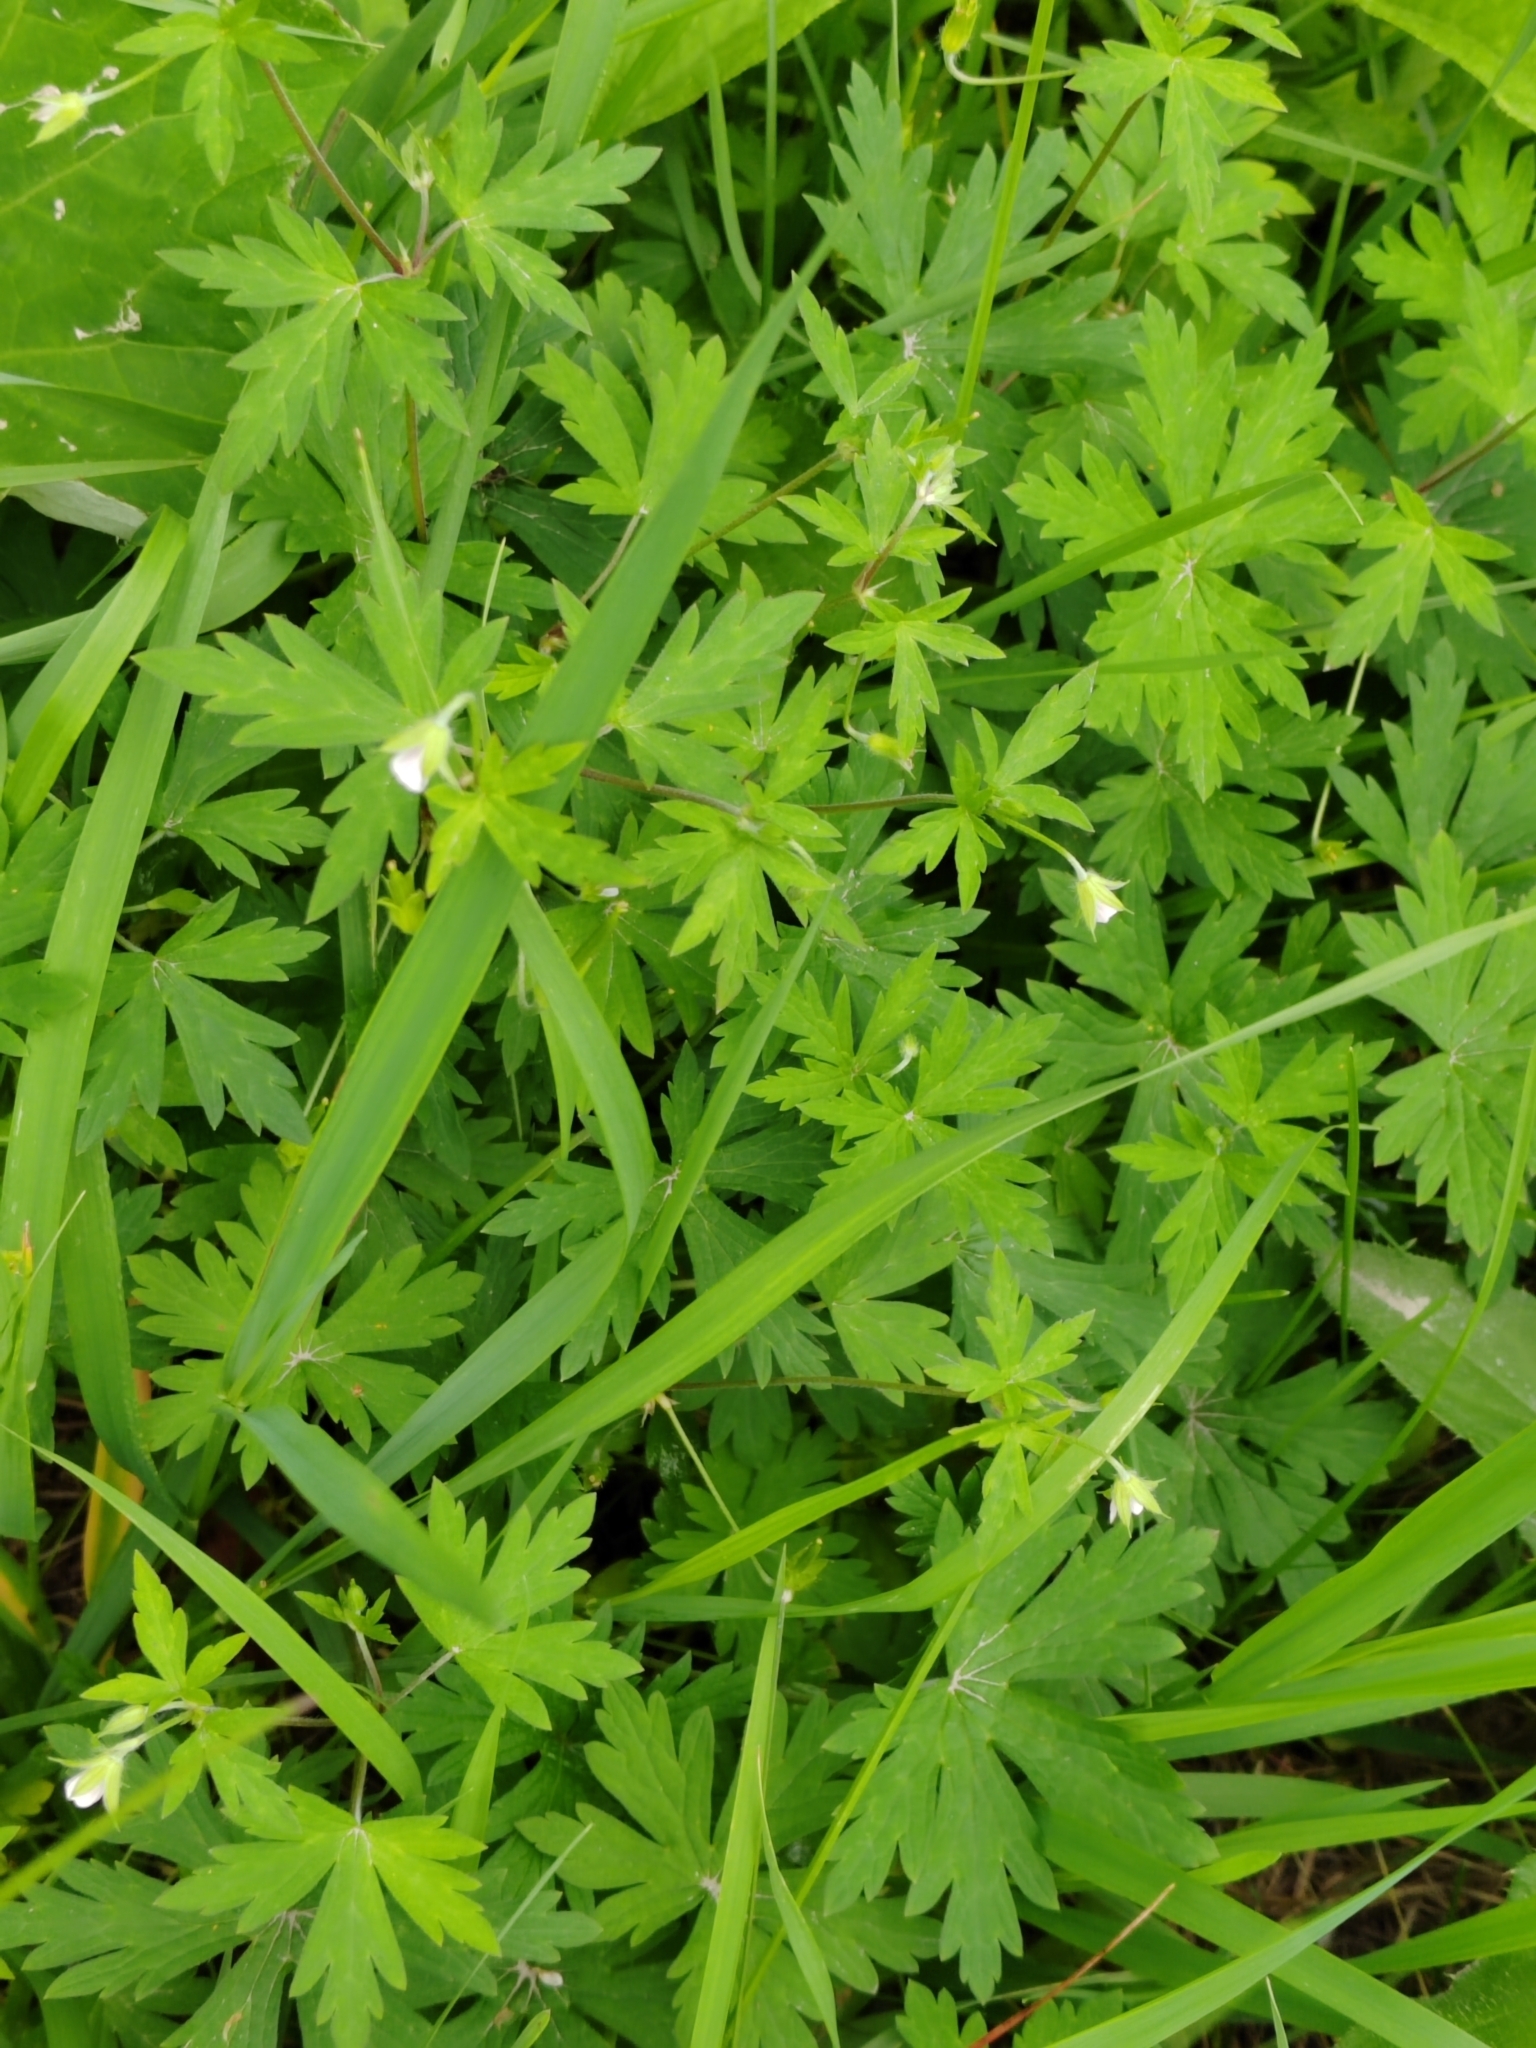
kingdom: Plantae
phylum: Tracheophyta
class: Magnoliopsida
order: Geraniales
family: Geraniaceae
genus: Geranium
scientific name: Geranium sibiricum
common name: Siberian crane's-bill
